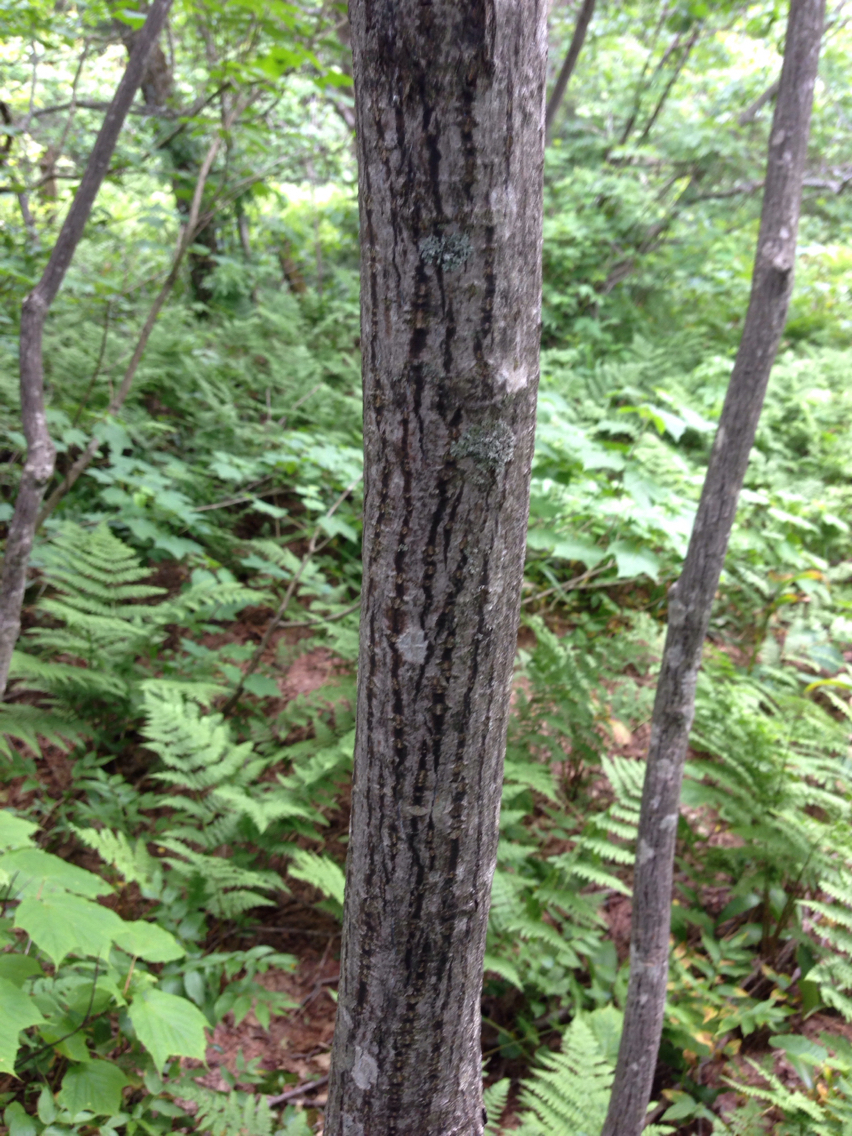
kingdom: Plantae
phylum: Tracheophyta
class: Magnoliopsida
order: Sapindales
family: Sapindaceae
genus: Acer
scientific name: Acer pensylvanicum
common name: Moosewood
